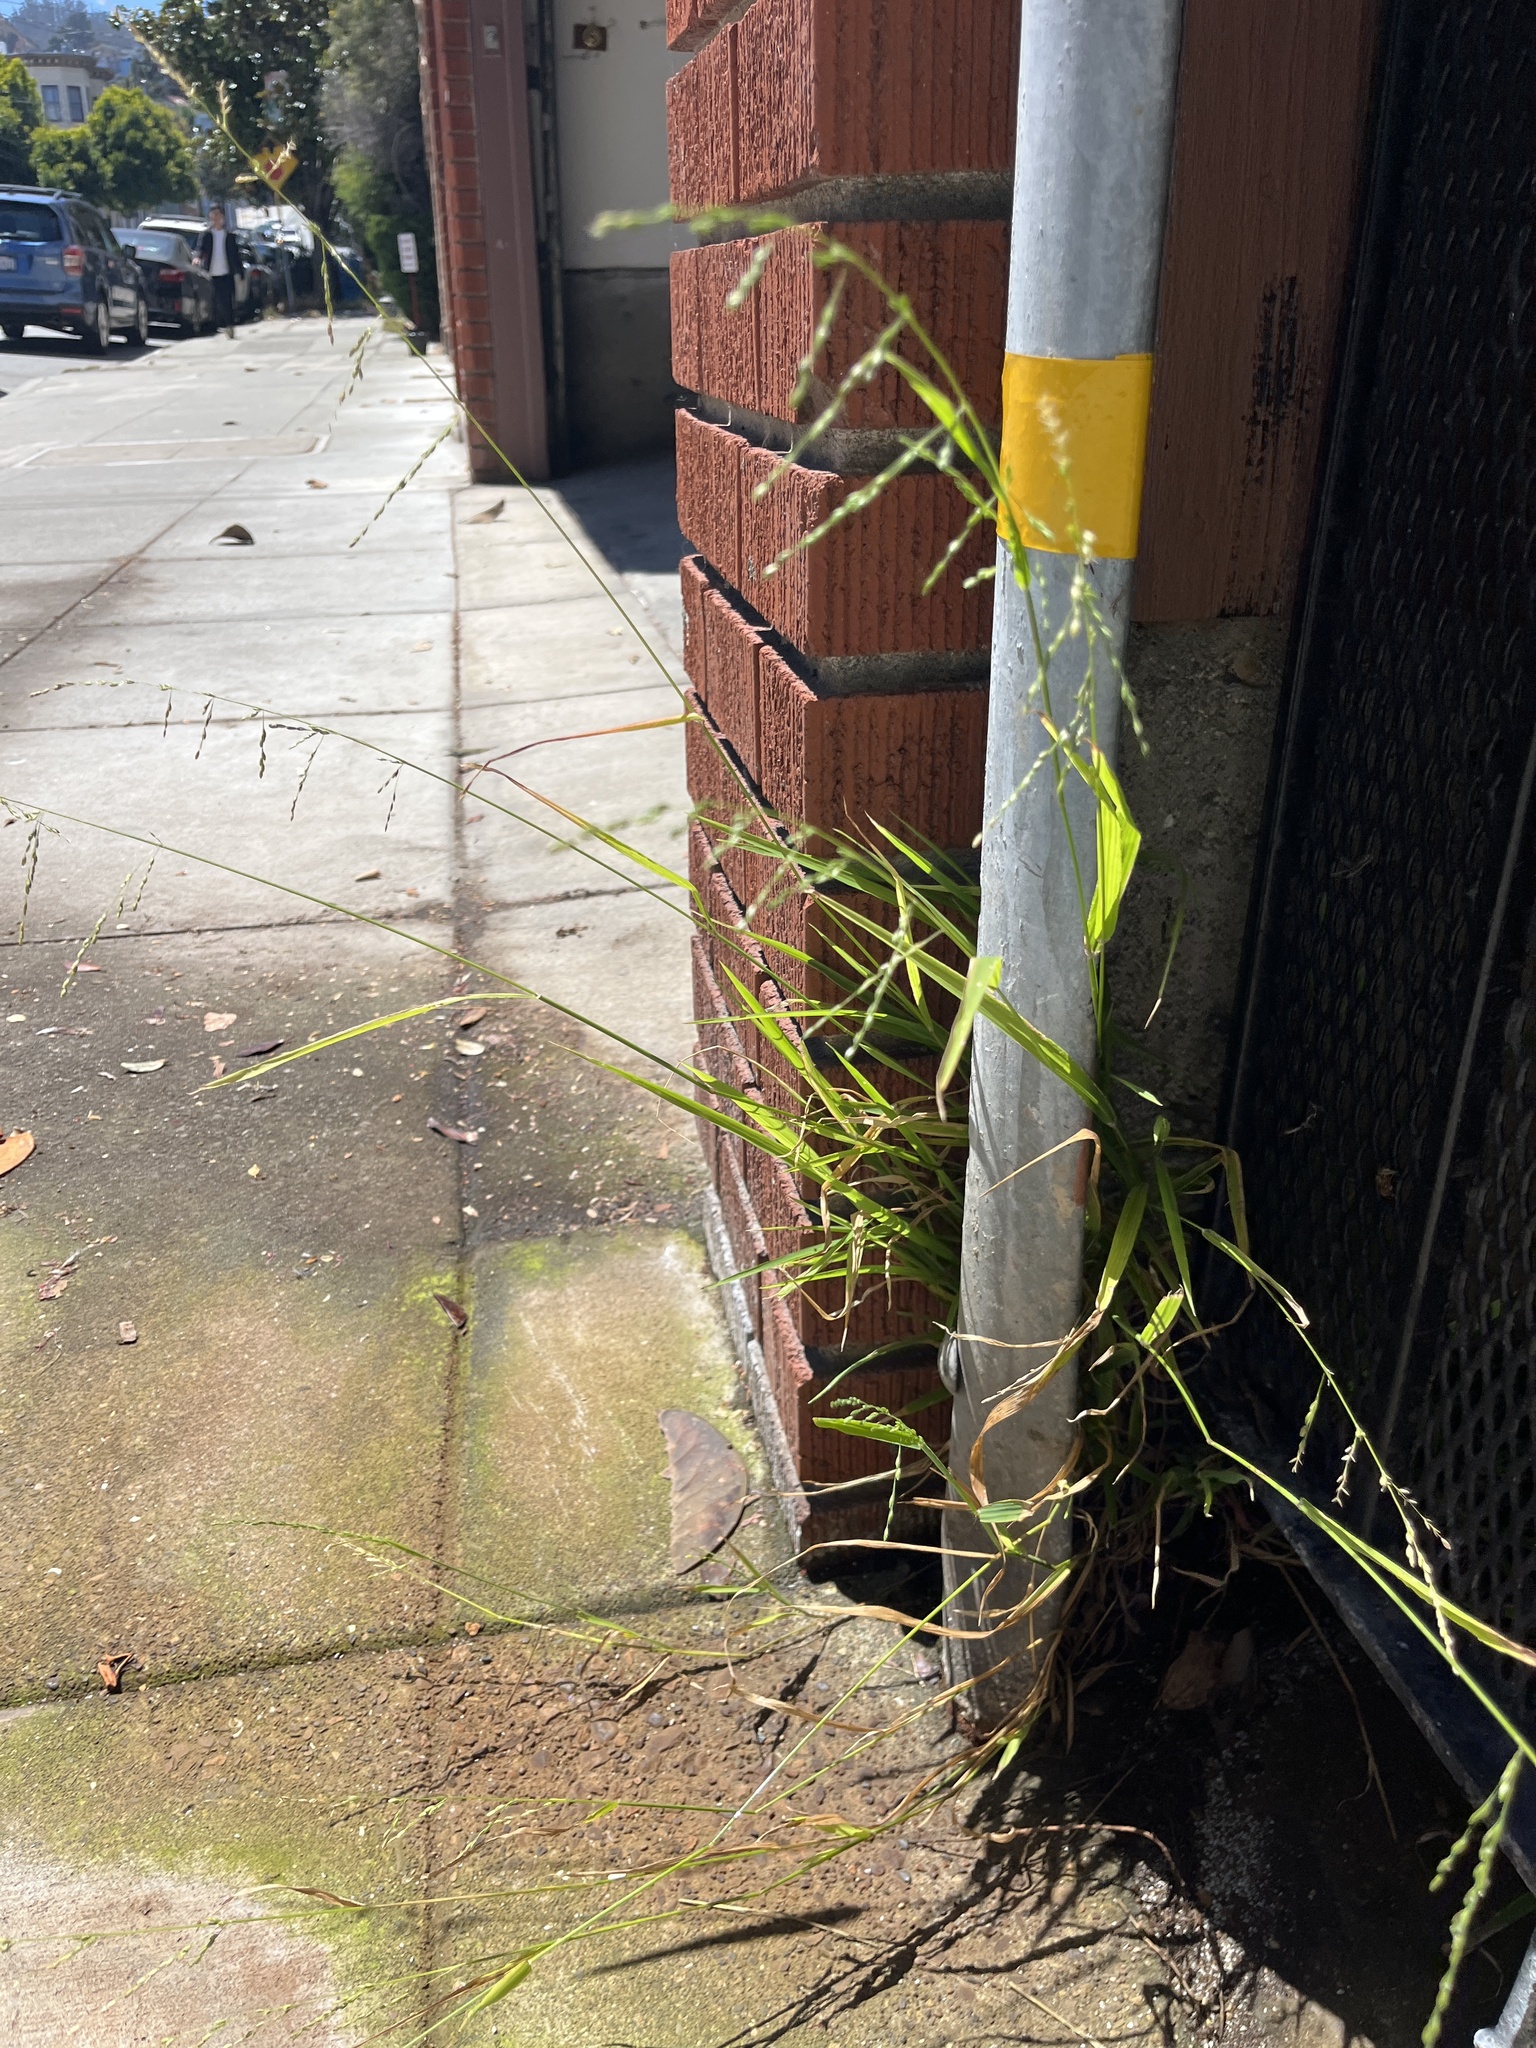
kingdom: Plantae
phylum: Tracheophyta
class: Liliopsida
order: Poales
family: Poaceae
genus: Ehrharta
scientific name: Ehrharta erecta
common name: Panic veldtgrass
